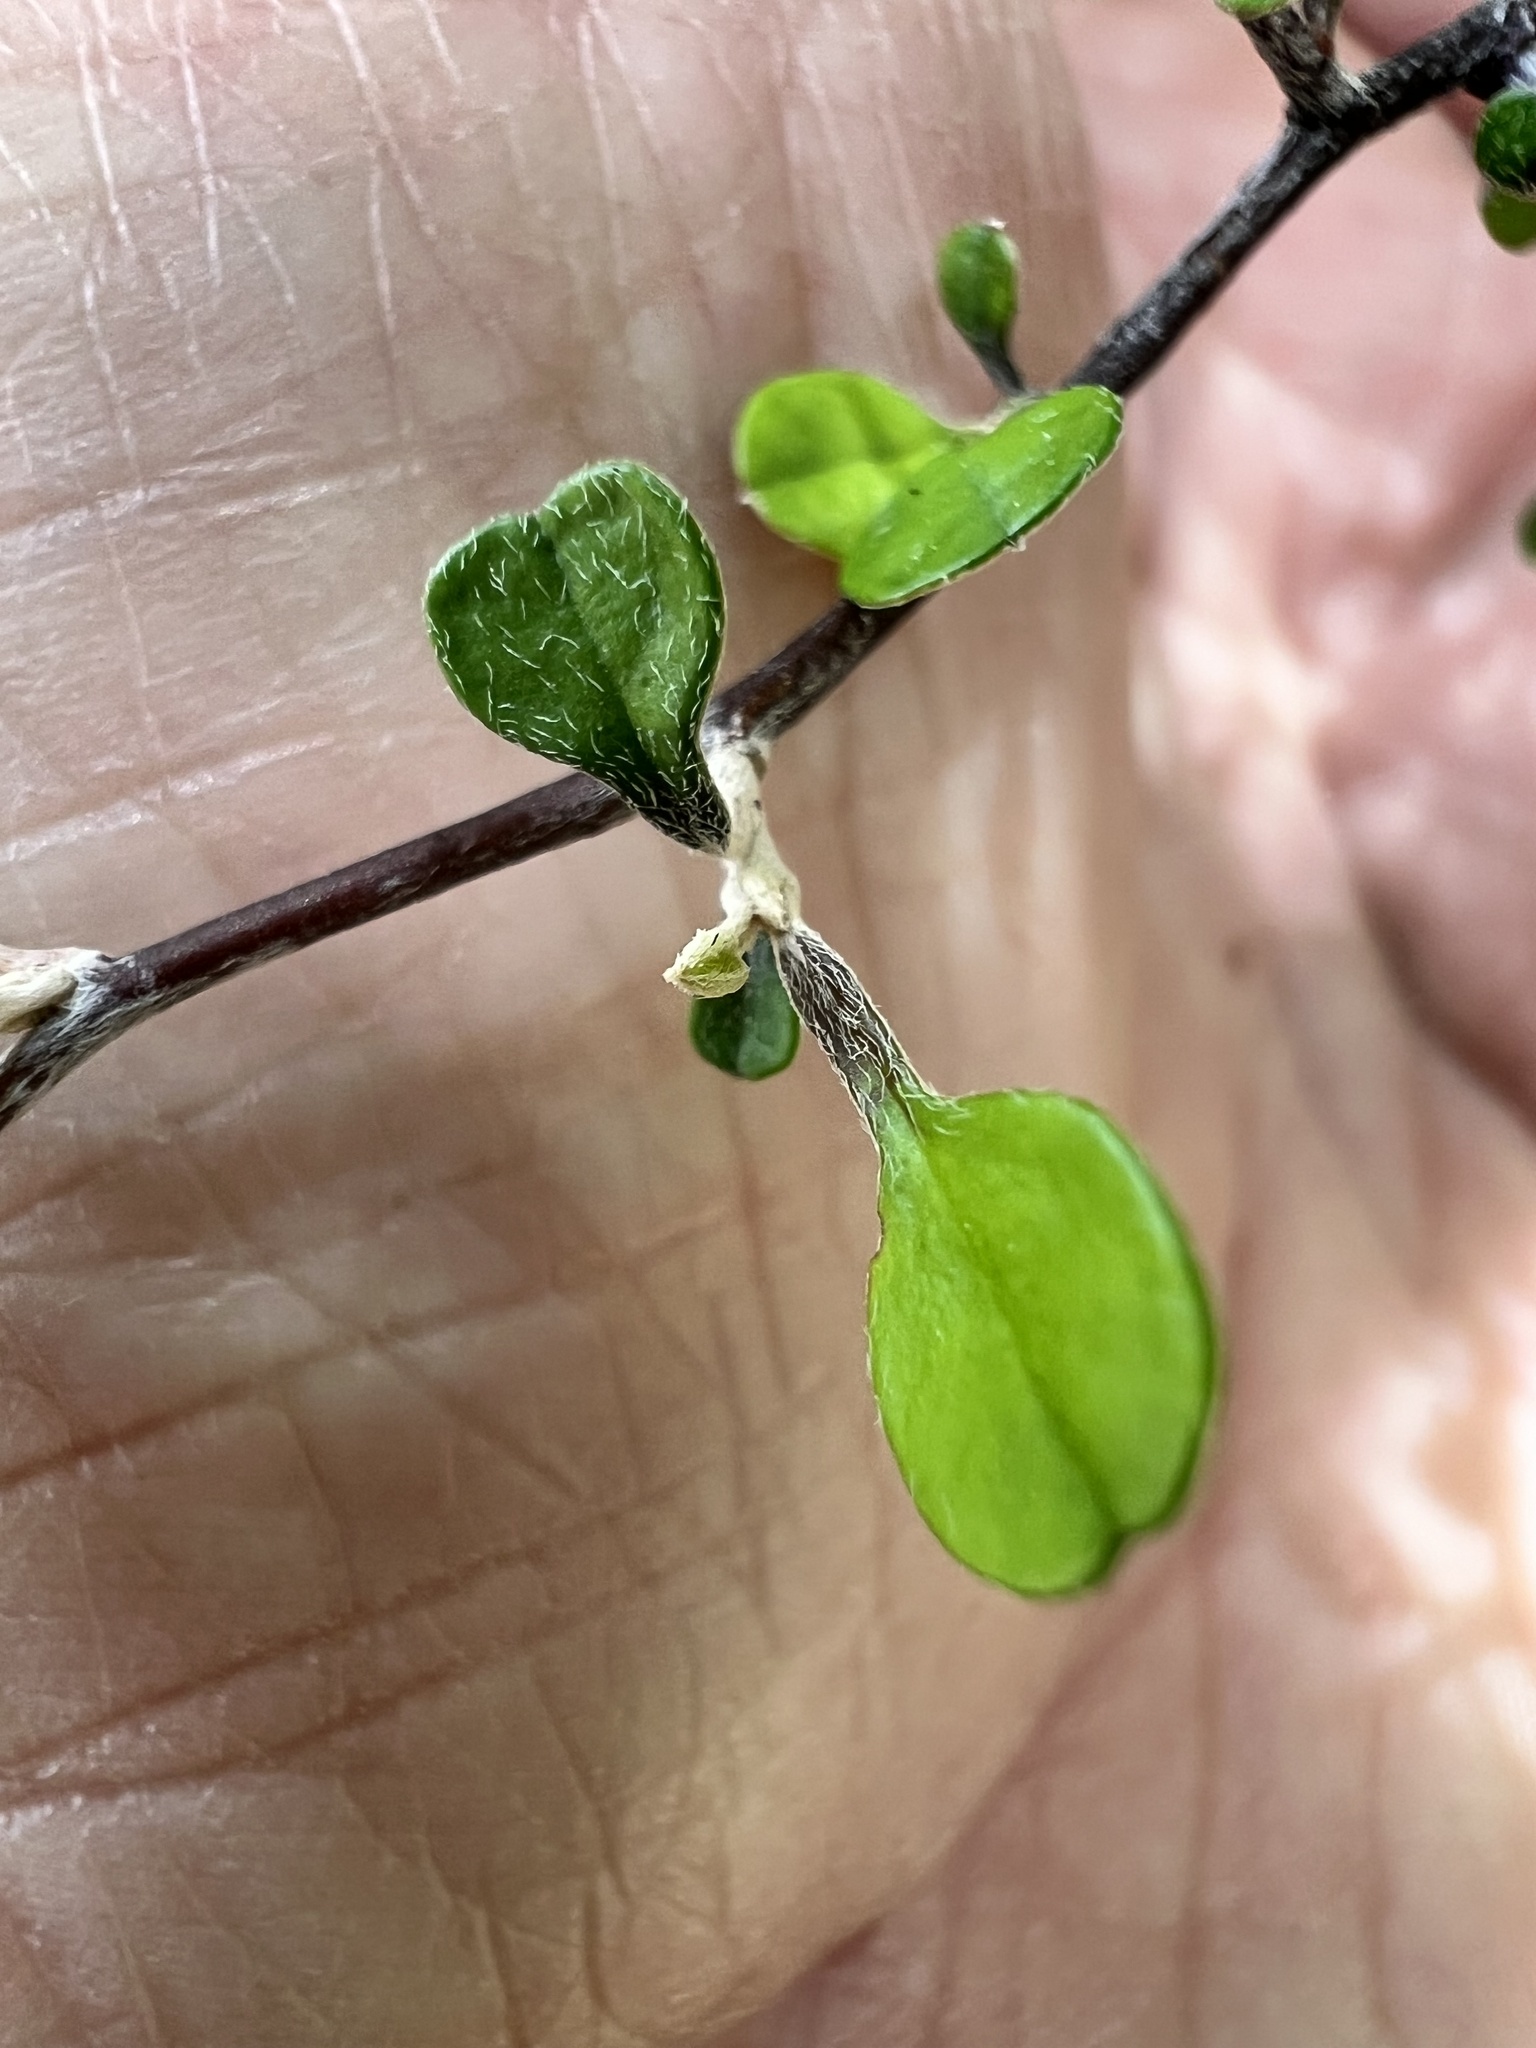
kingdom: Plantae
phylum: Tracheophyta
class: Magnoliopsida
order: Asterales
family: Argophyllaceae
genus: Corokia
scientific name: Corokia cotoneaster
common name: Wire nettingbush
